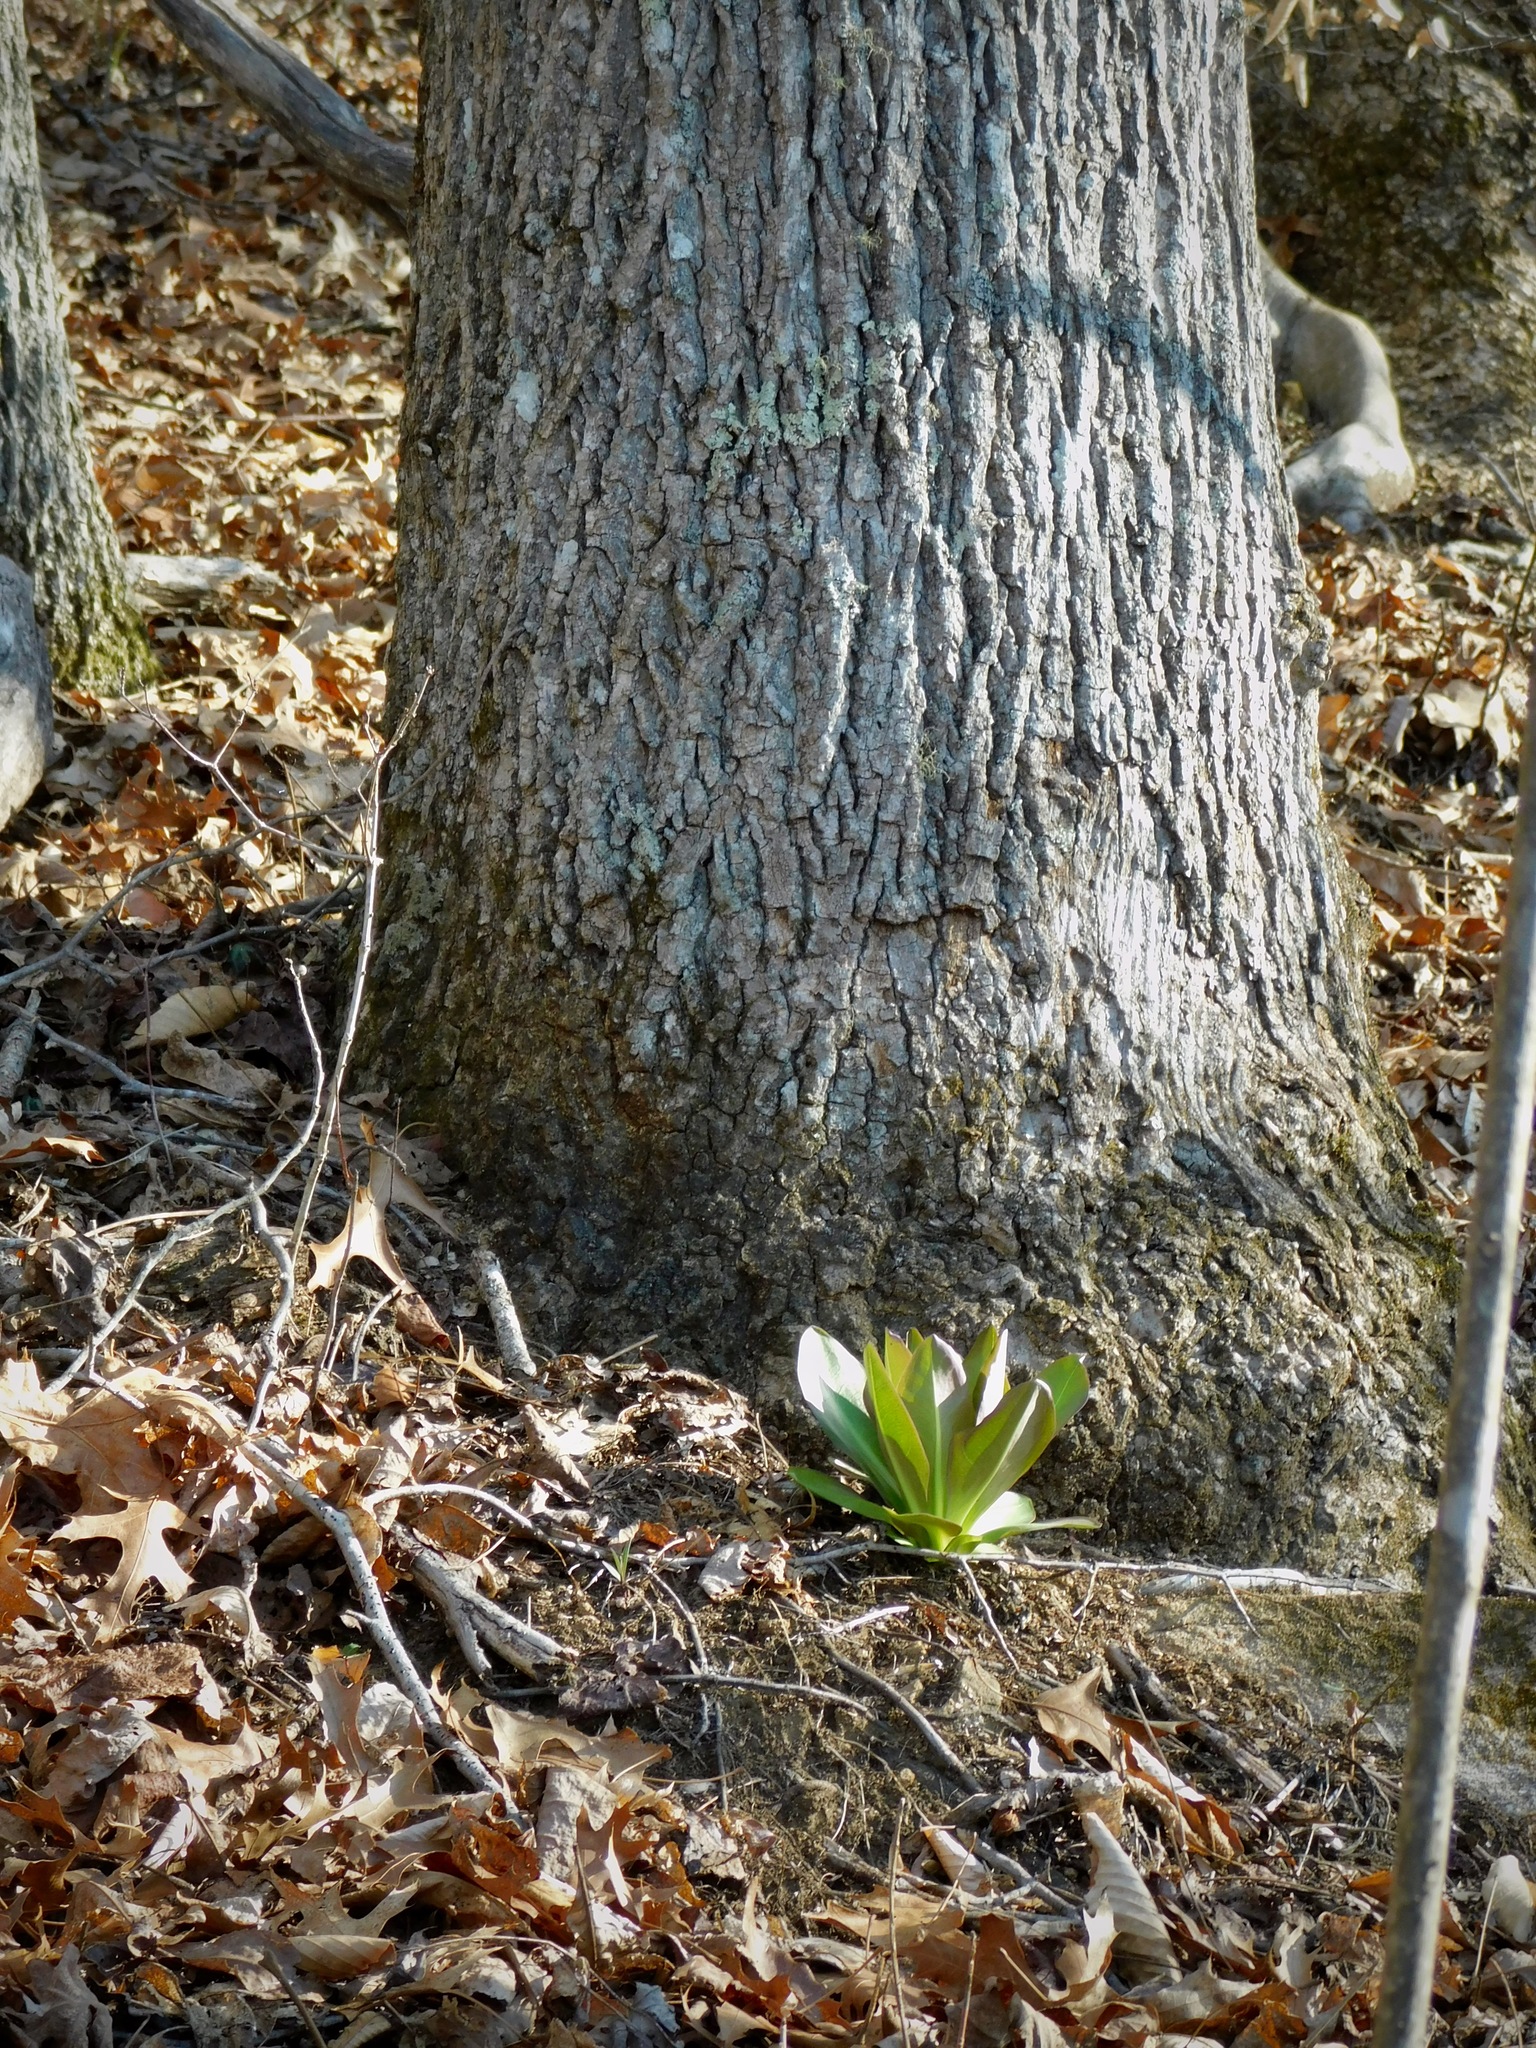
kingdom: Plantae
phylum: Tracheophyta
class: Magnoliopsida
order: Gentianales
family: Gentianaceae
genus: Frasera
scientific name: Frasera caroliniensis
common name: American columbo
